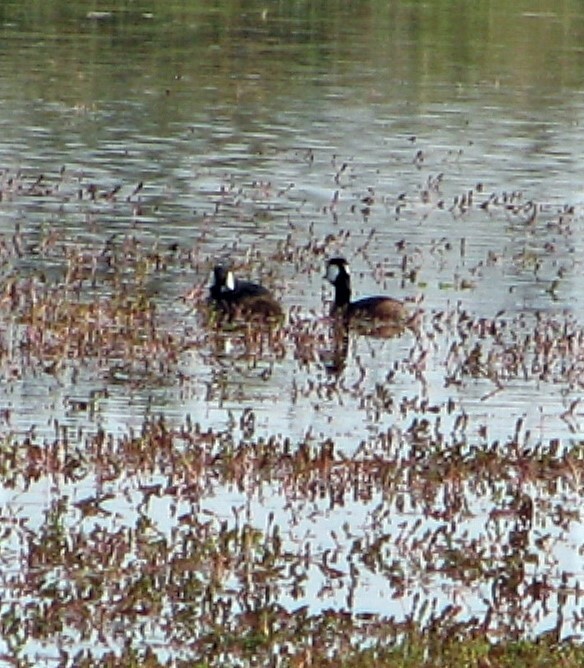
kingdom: Animalia
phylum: Chordata
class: Aves
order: Podicipediformes
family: Podicipedidae
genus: Rollandia
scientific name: Rollandia rolland
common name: White-tufted grebe
